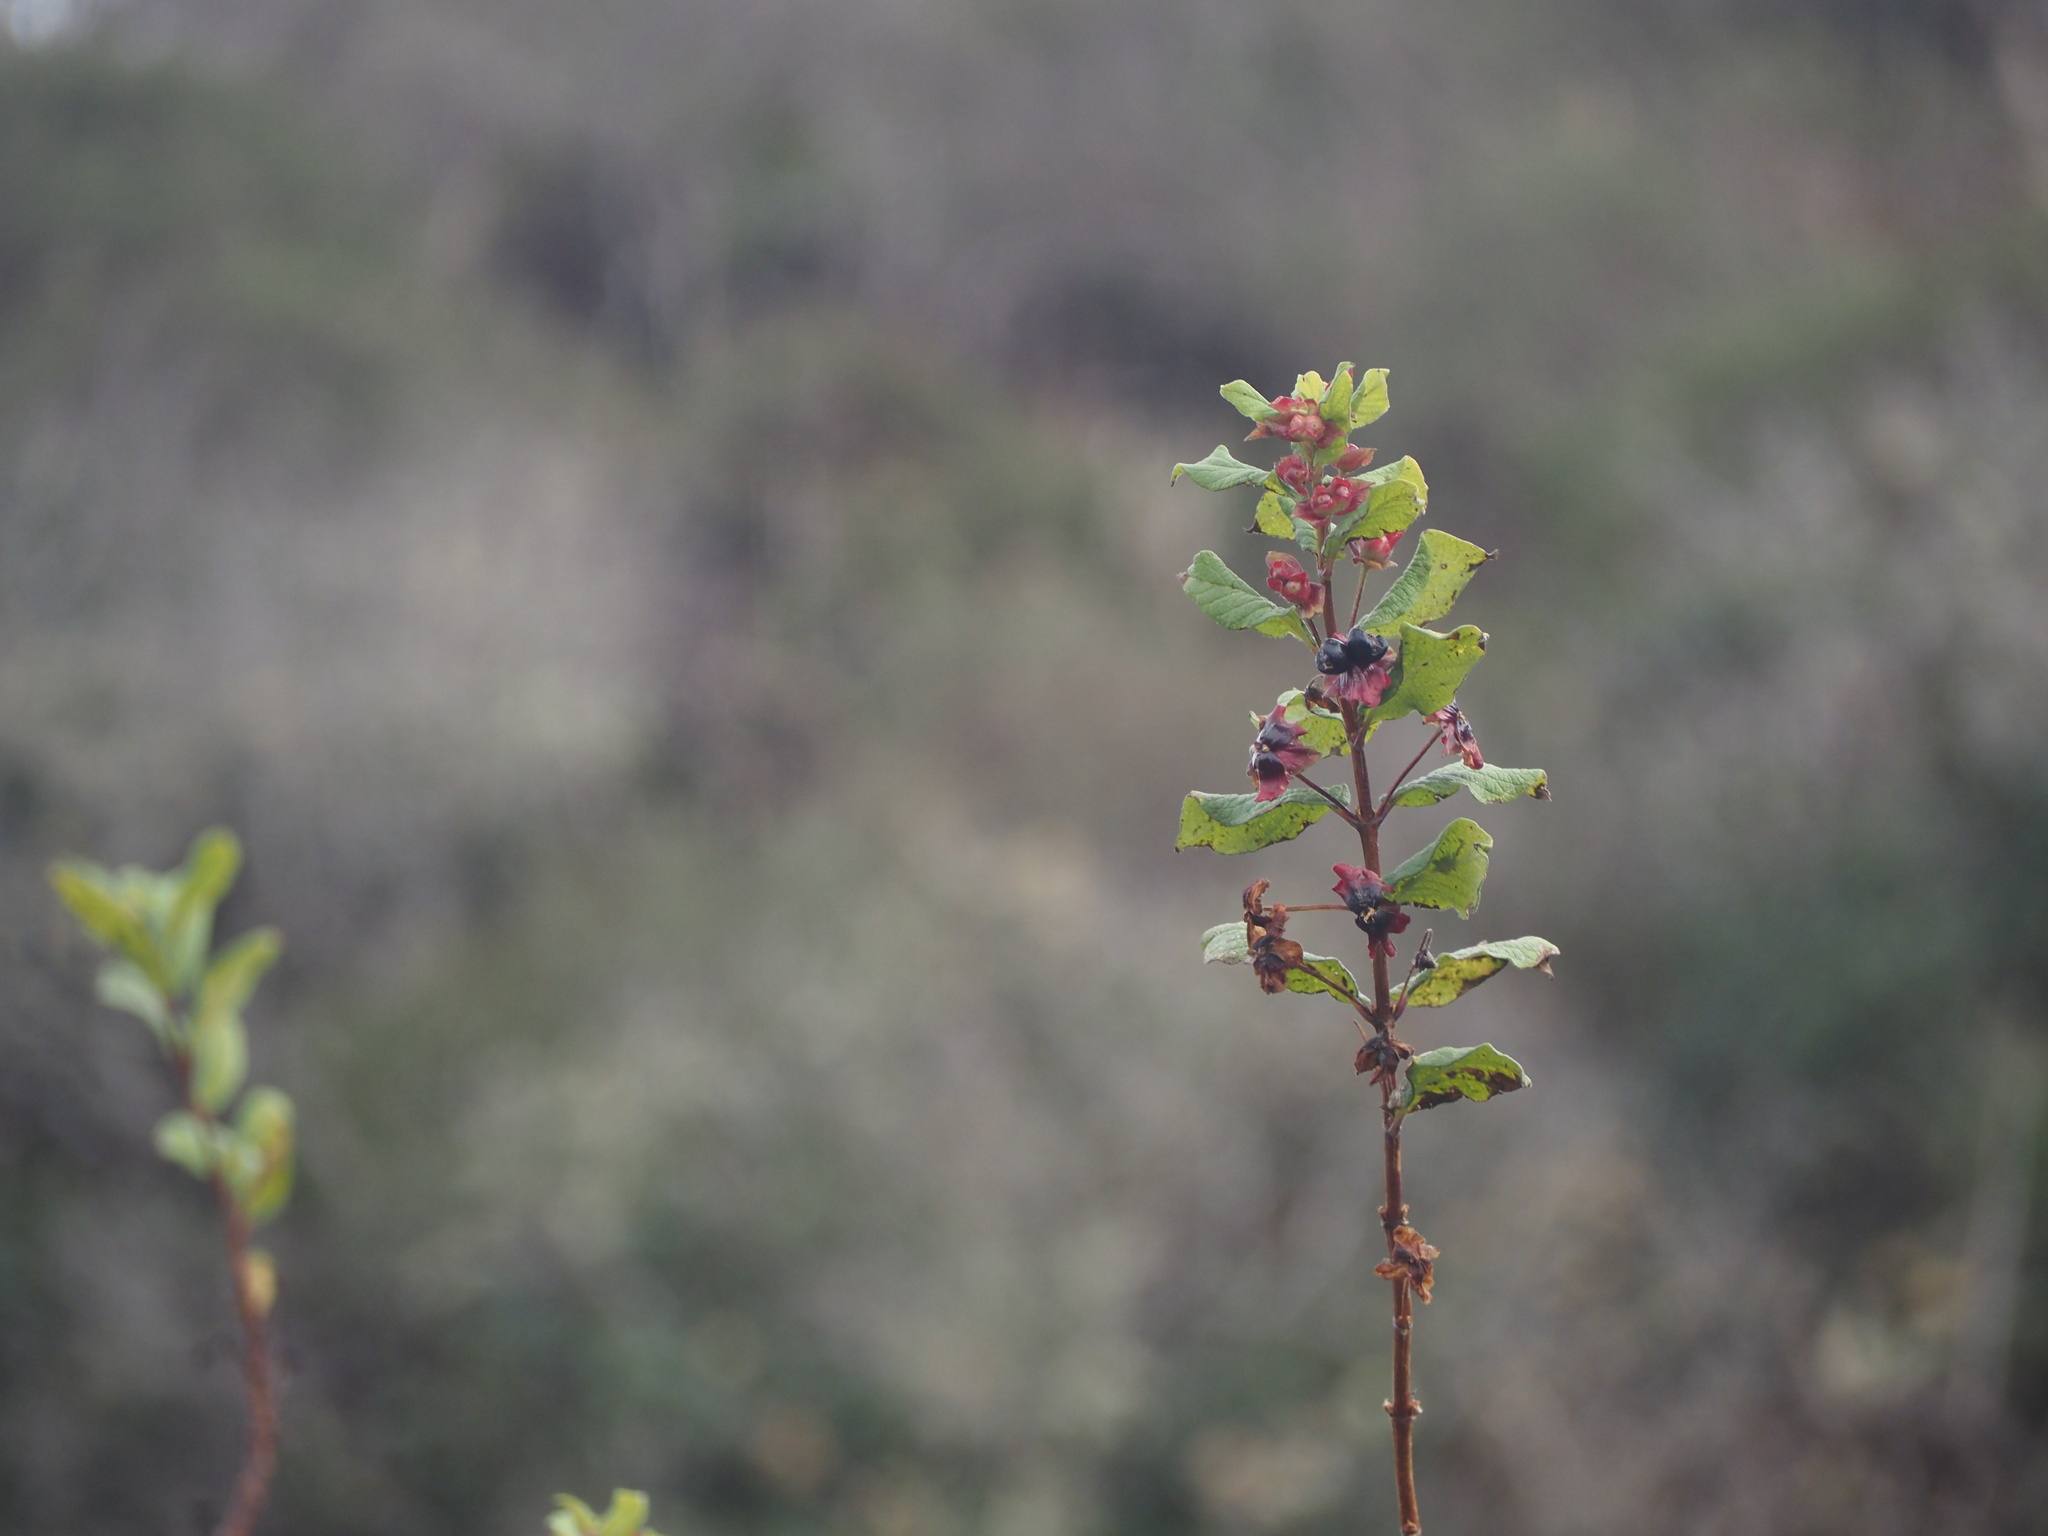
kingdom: Plantae
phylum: Tracheophyta
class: Magnoliopsida
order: Dipsacales
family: Caprifoliaceae
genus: Lonicera
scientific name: Lonicera involucrata
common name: Californian honeysuckle
